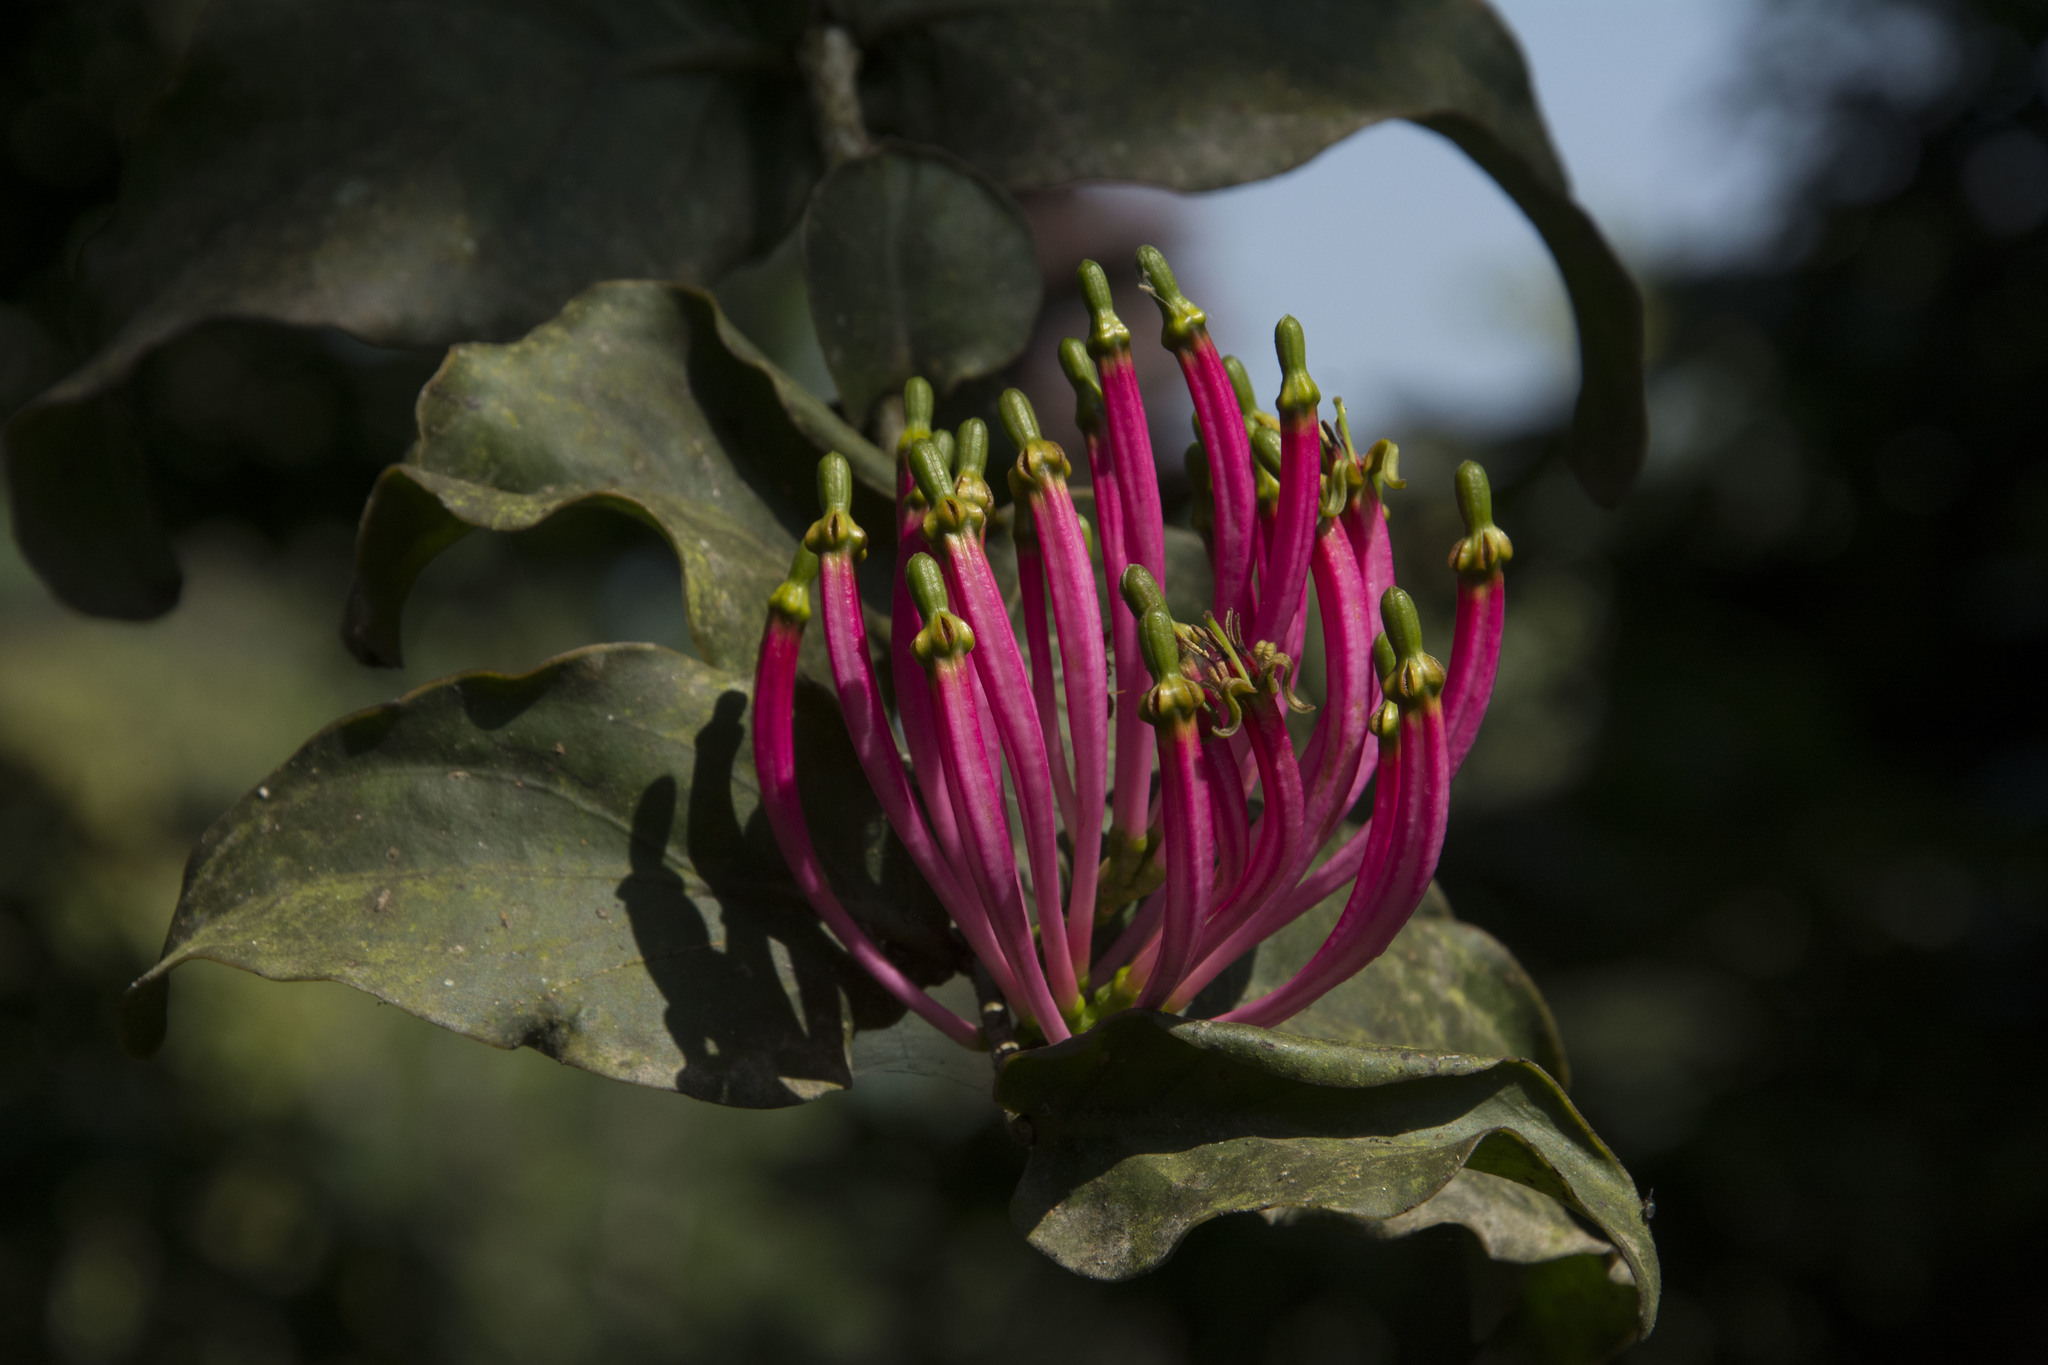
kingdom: Plantae
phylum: Tracheophyta
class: Magnoliopsida
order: Santalales
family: Loranthaceae
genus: Dendrophthoe
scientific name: Dendrophthoe falcata
